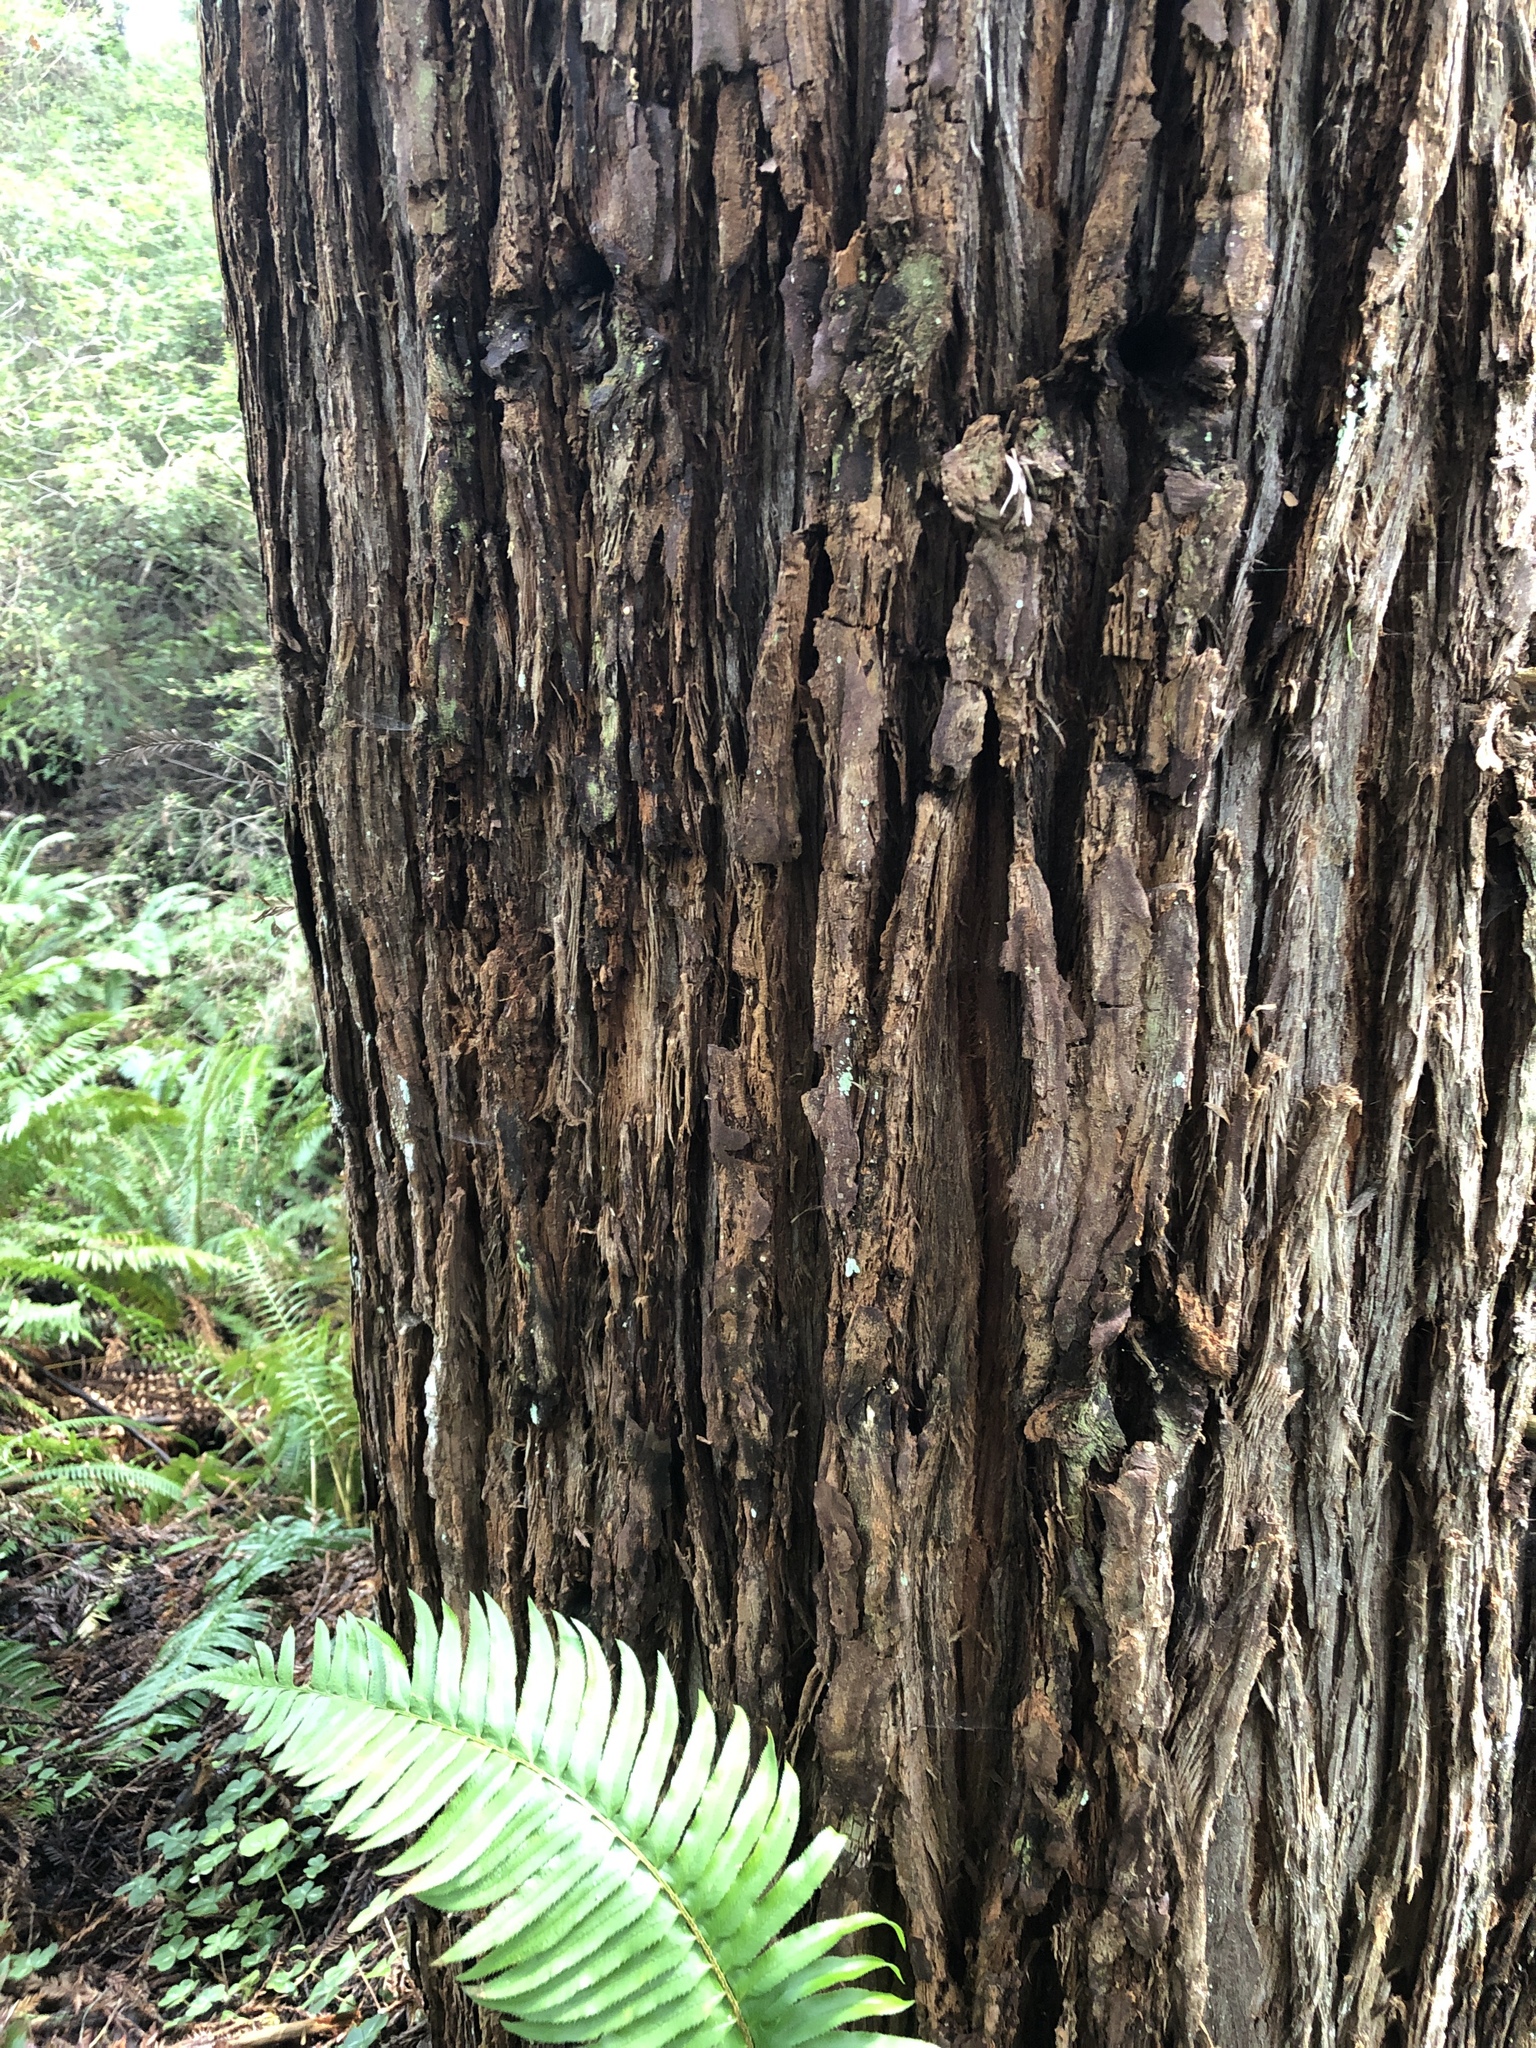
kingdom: Plantae
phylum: Tracheophyta
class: Pinopsida
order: Pinales
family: Cupressaceae
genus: Sequoia
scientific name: Sequoia sempervirens
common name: Coast redwood
